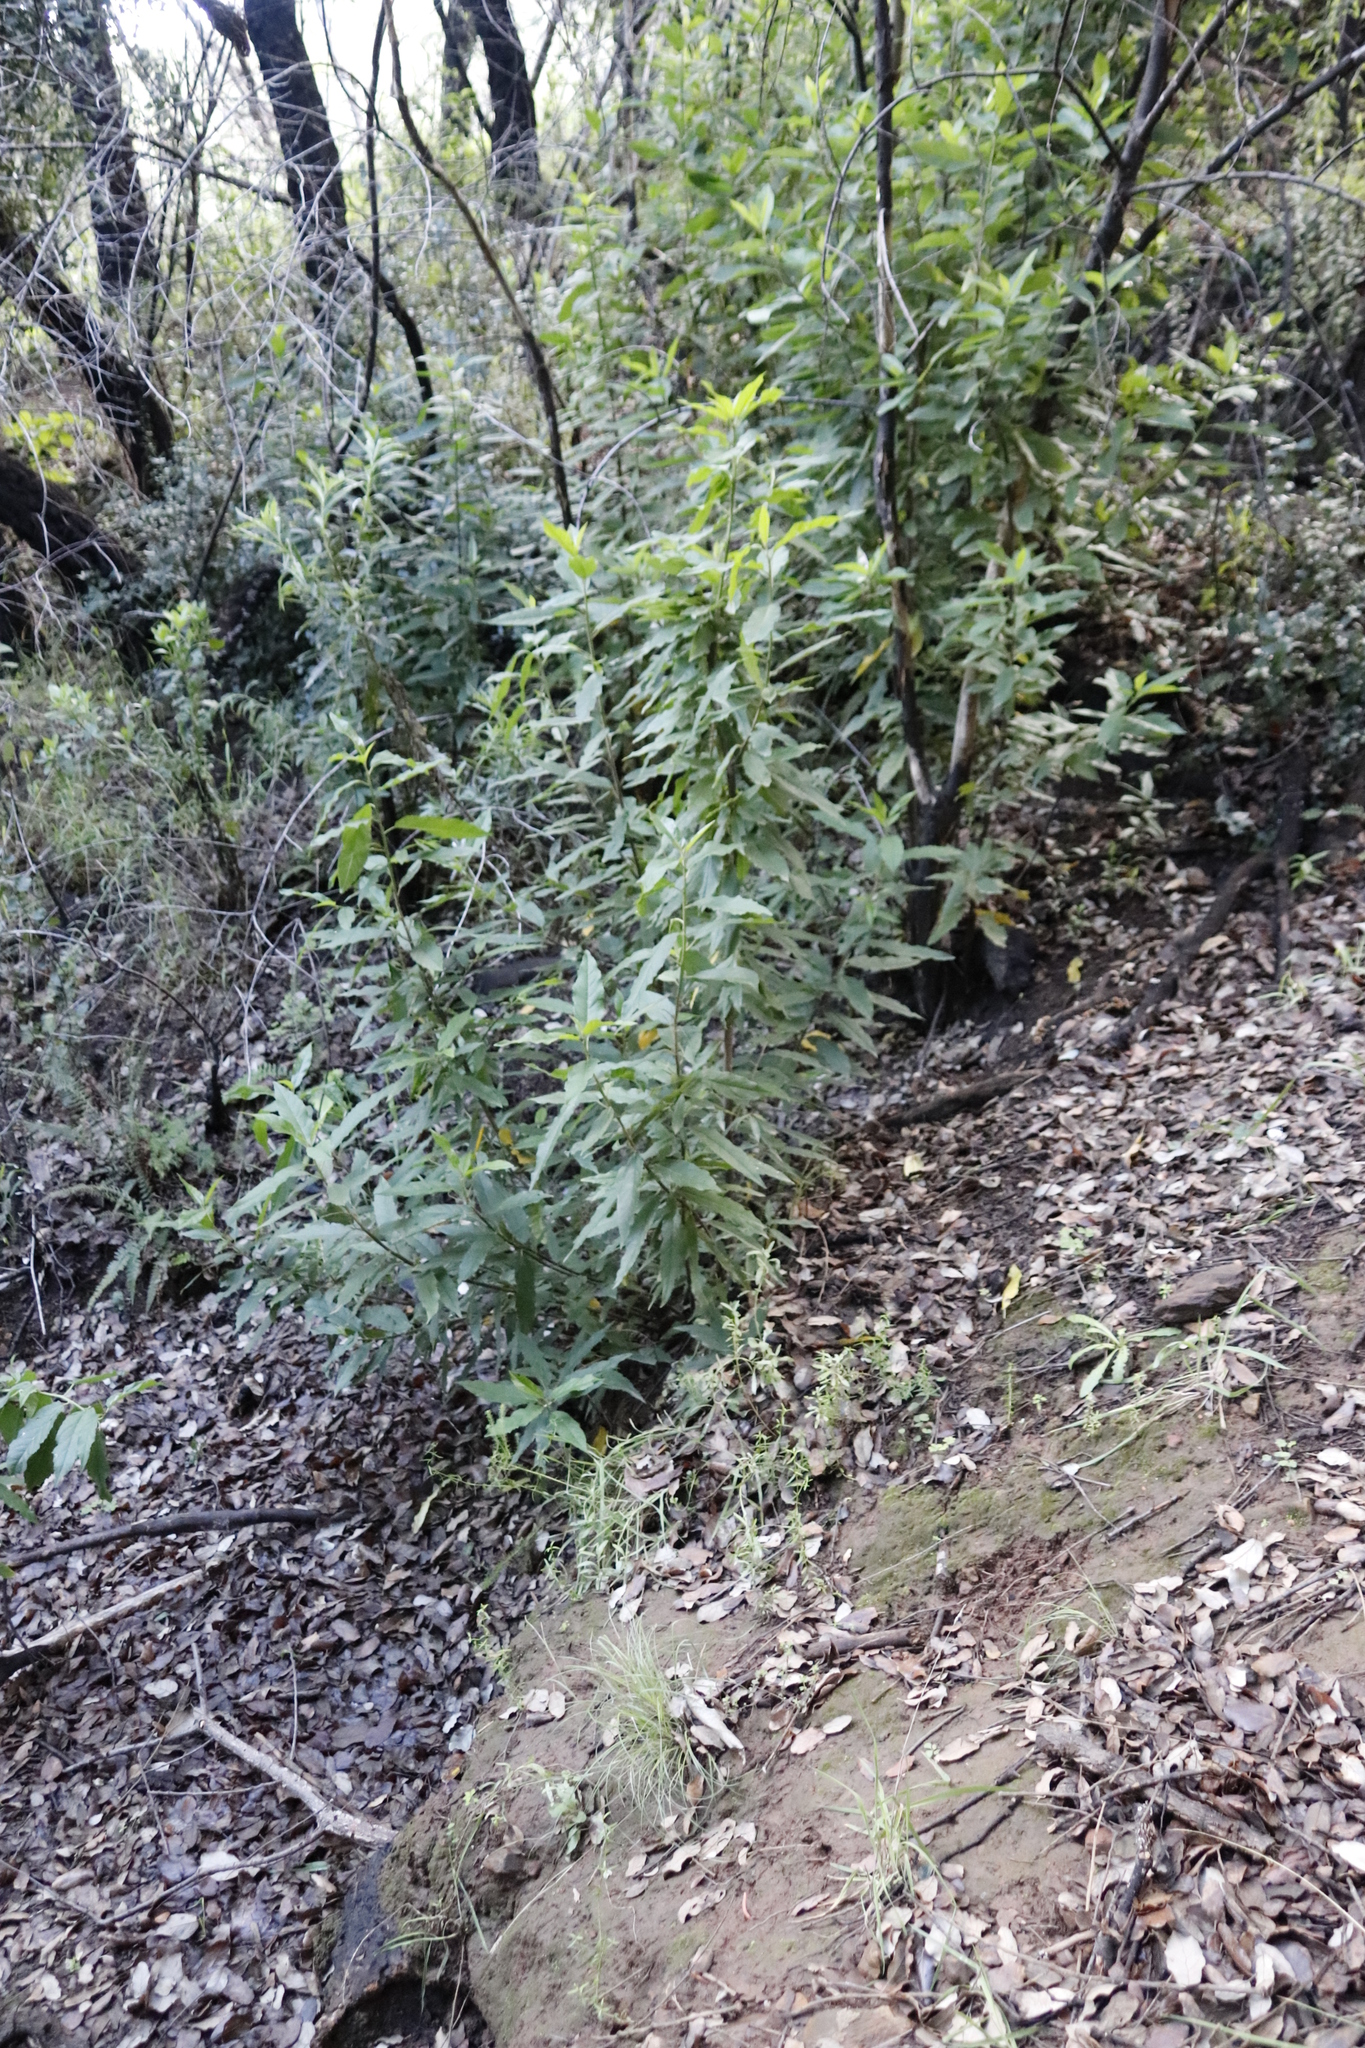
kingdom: Plantae
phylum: Tracheophyta
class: Magnoliopsida
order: Malpighiales
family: Achariaceae
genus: Kiggelaria
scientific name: Kiggelaria africana
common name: Wild peach
